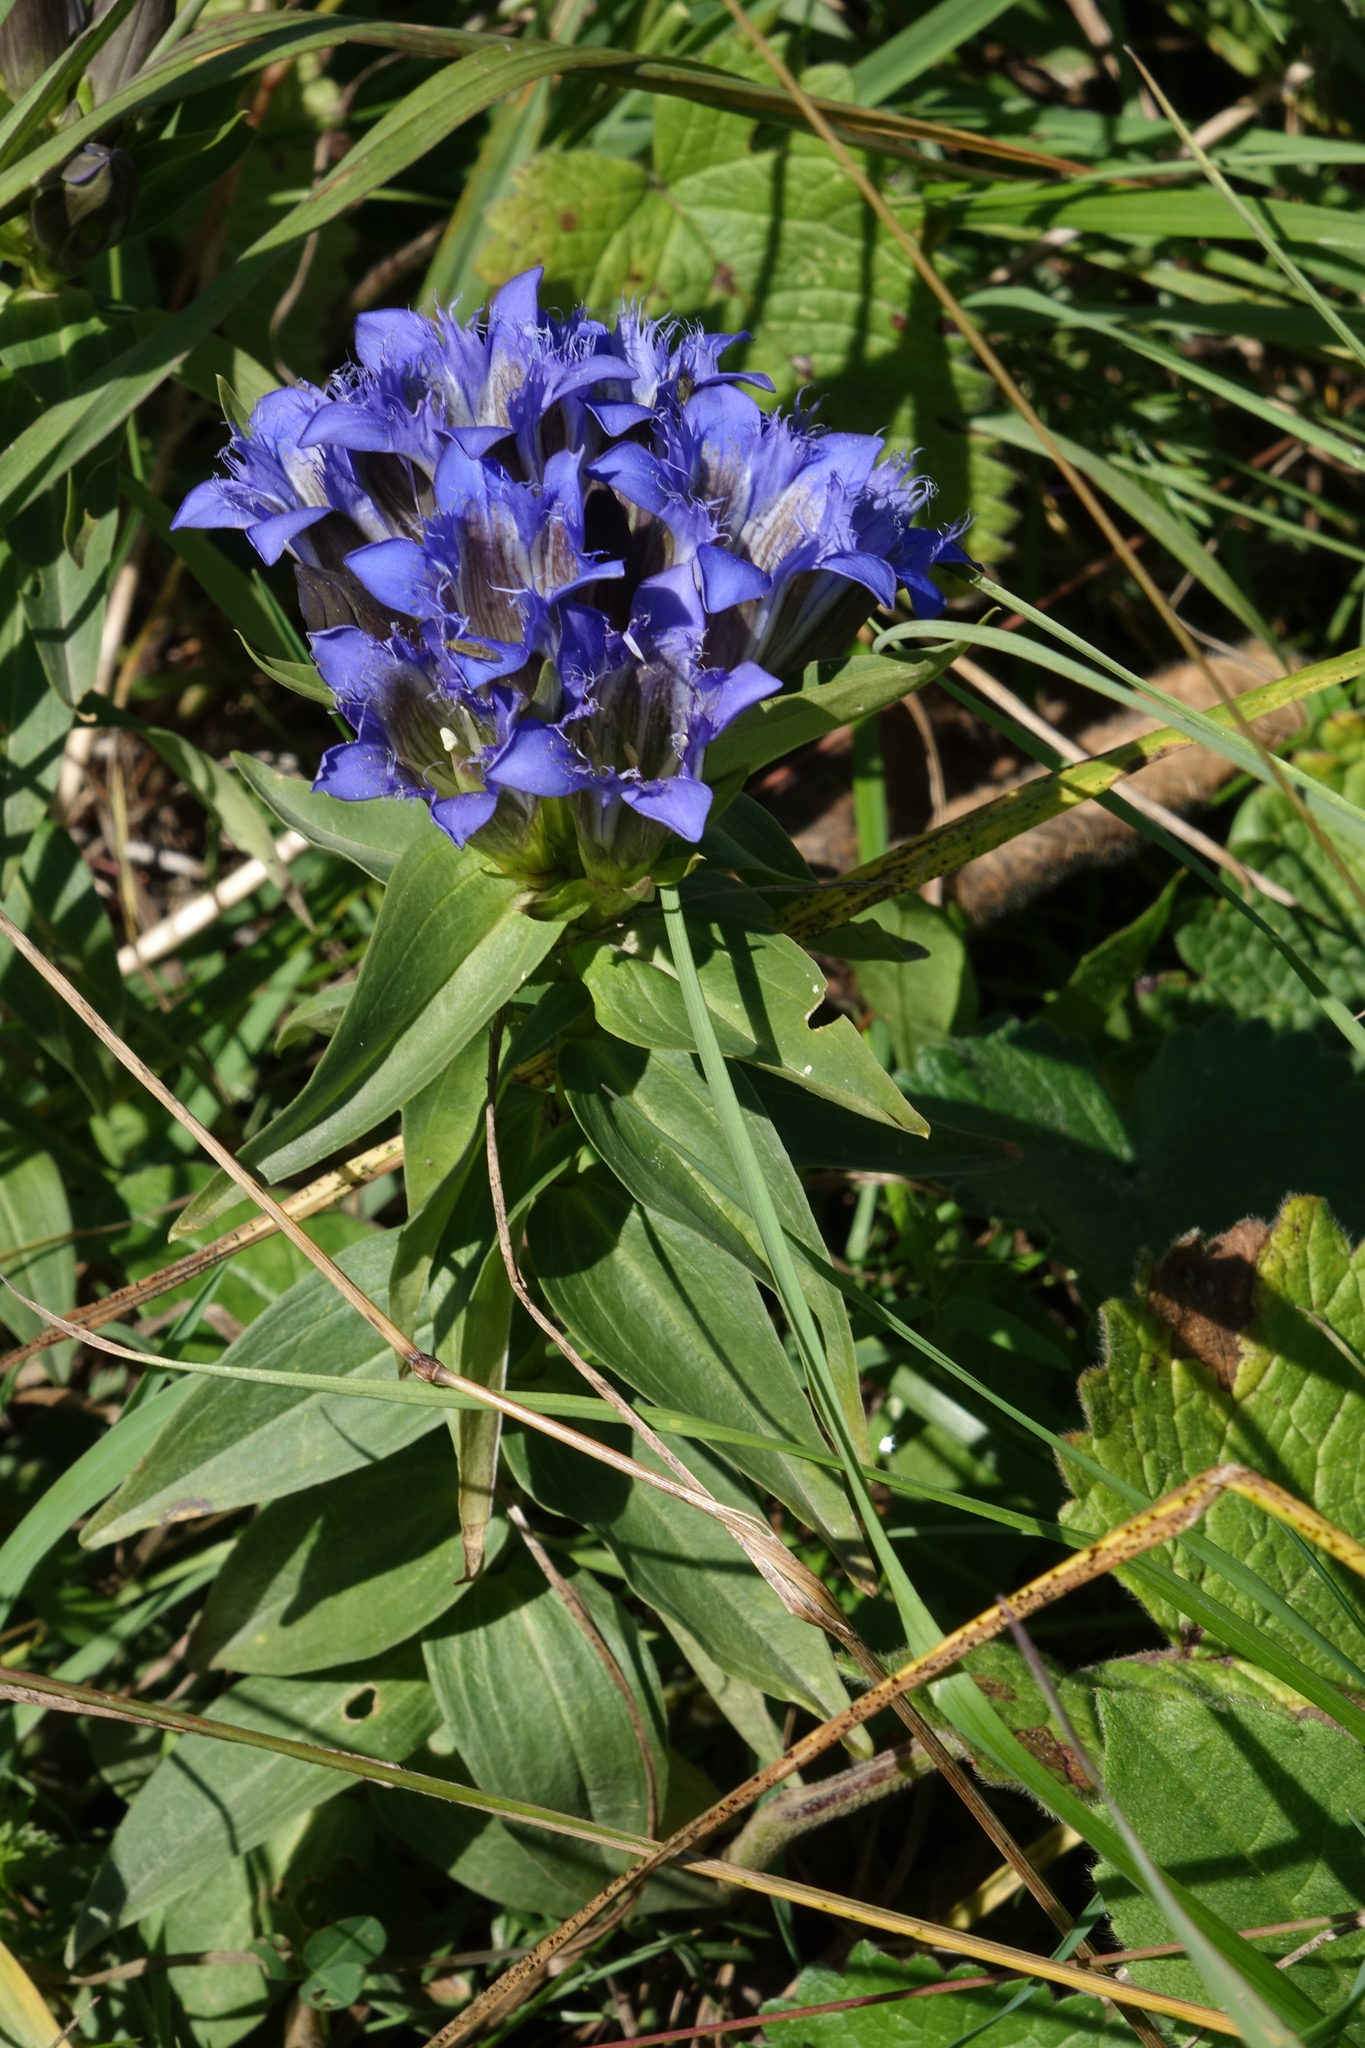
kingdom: Plantae
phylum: Tracheophyta
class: Magnoliopsida
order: Gentianales
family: Gentianaceae
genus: Gentiana
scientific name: Gentiana septemfida
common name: Crested gentian
